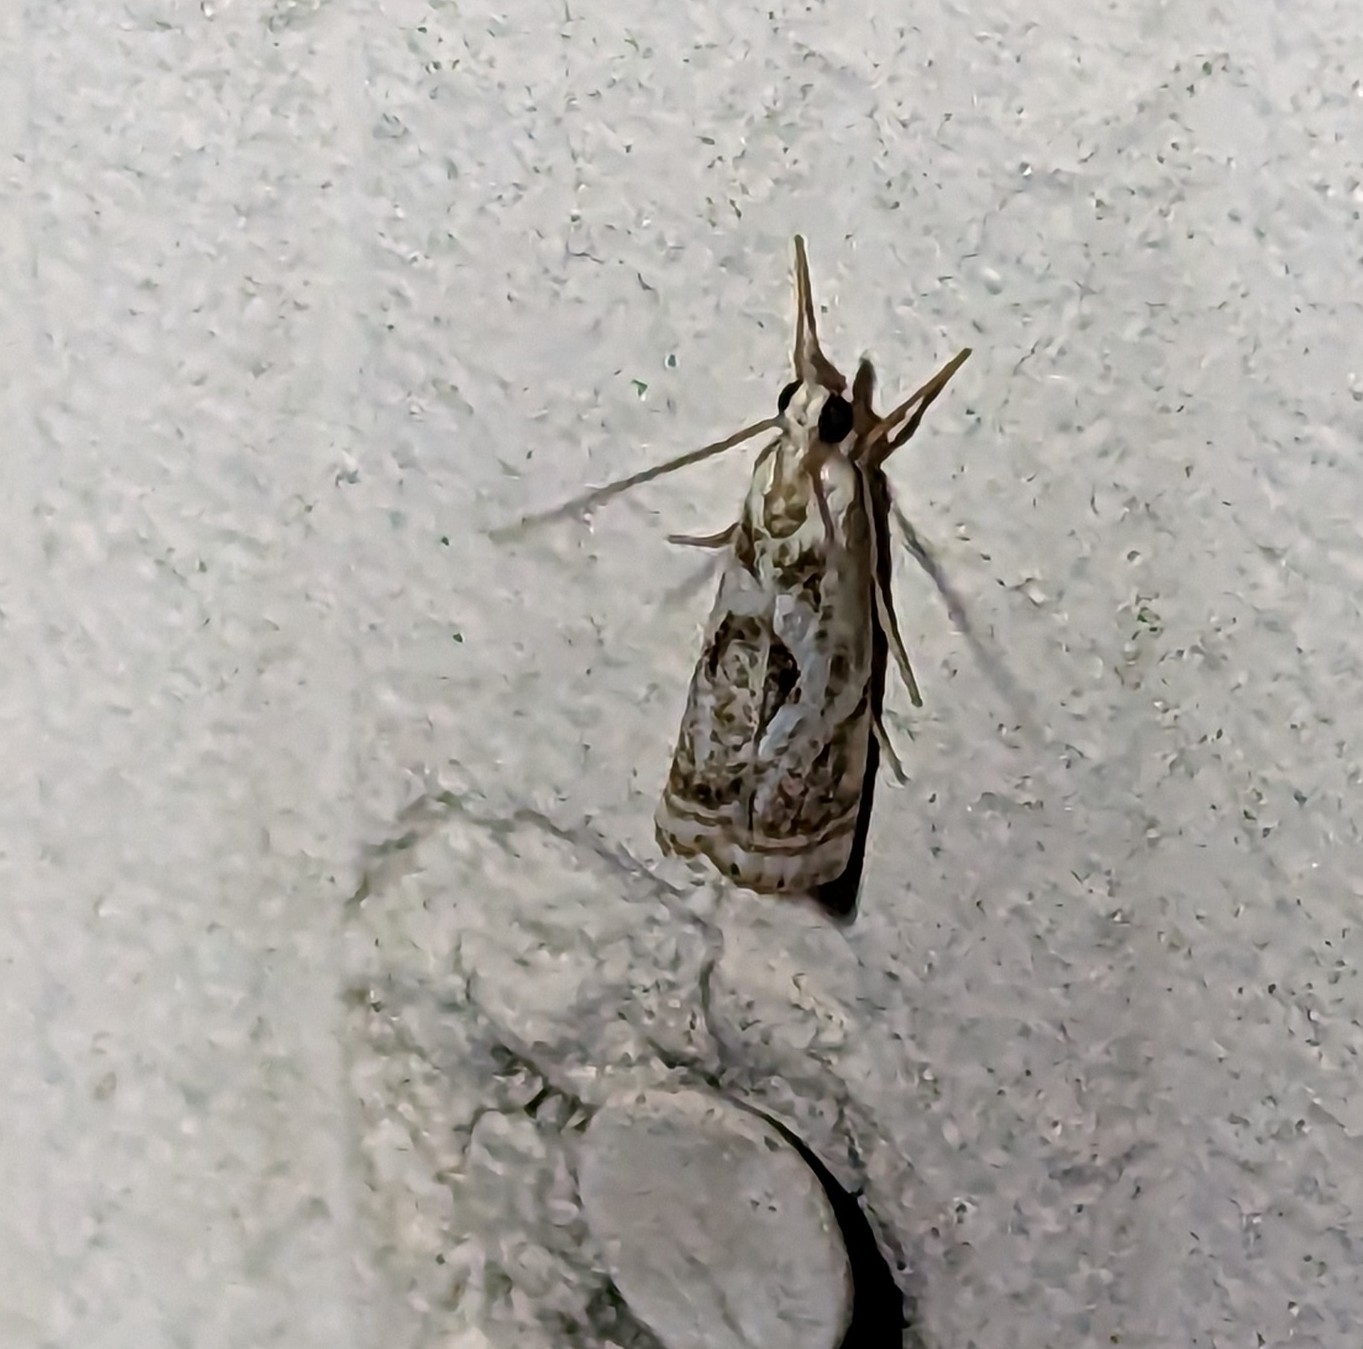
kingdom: Animalia
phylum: Arthropoda
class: Insecta
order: Lepidoptera
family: Crambidae
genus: Microcrambus
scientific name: Microcrambus elegans
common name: Elegant grass-veneer
